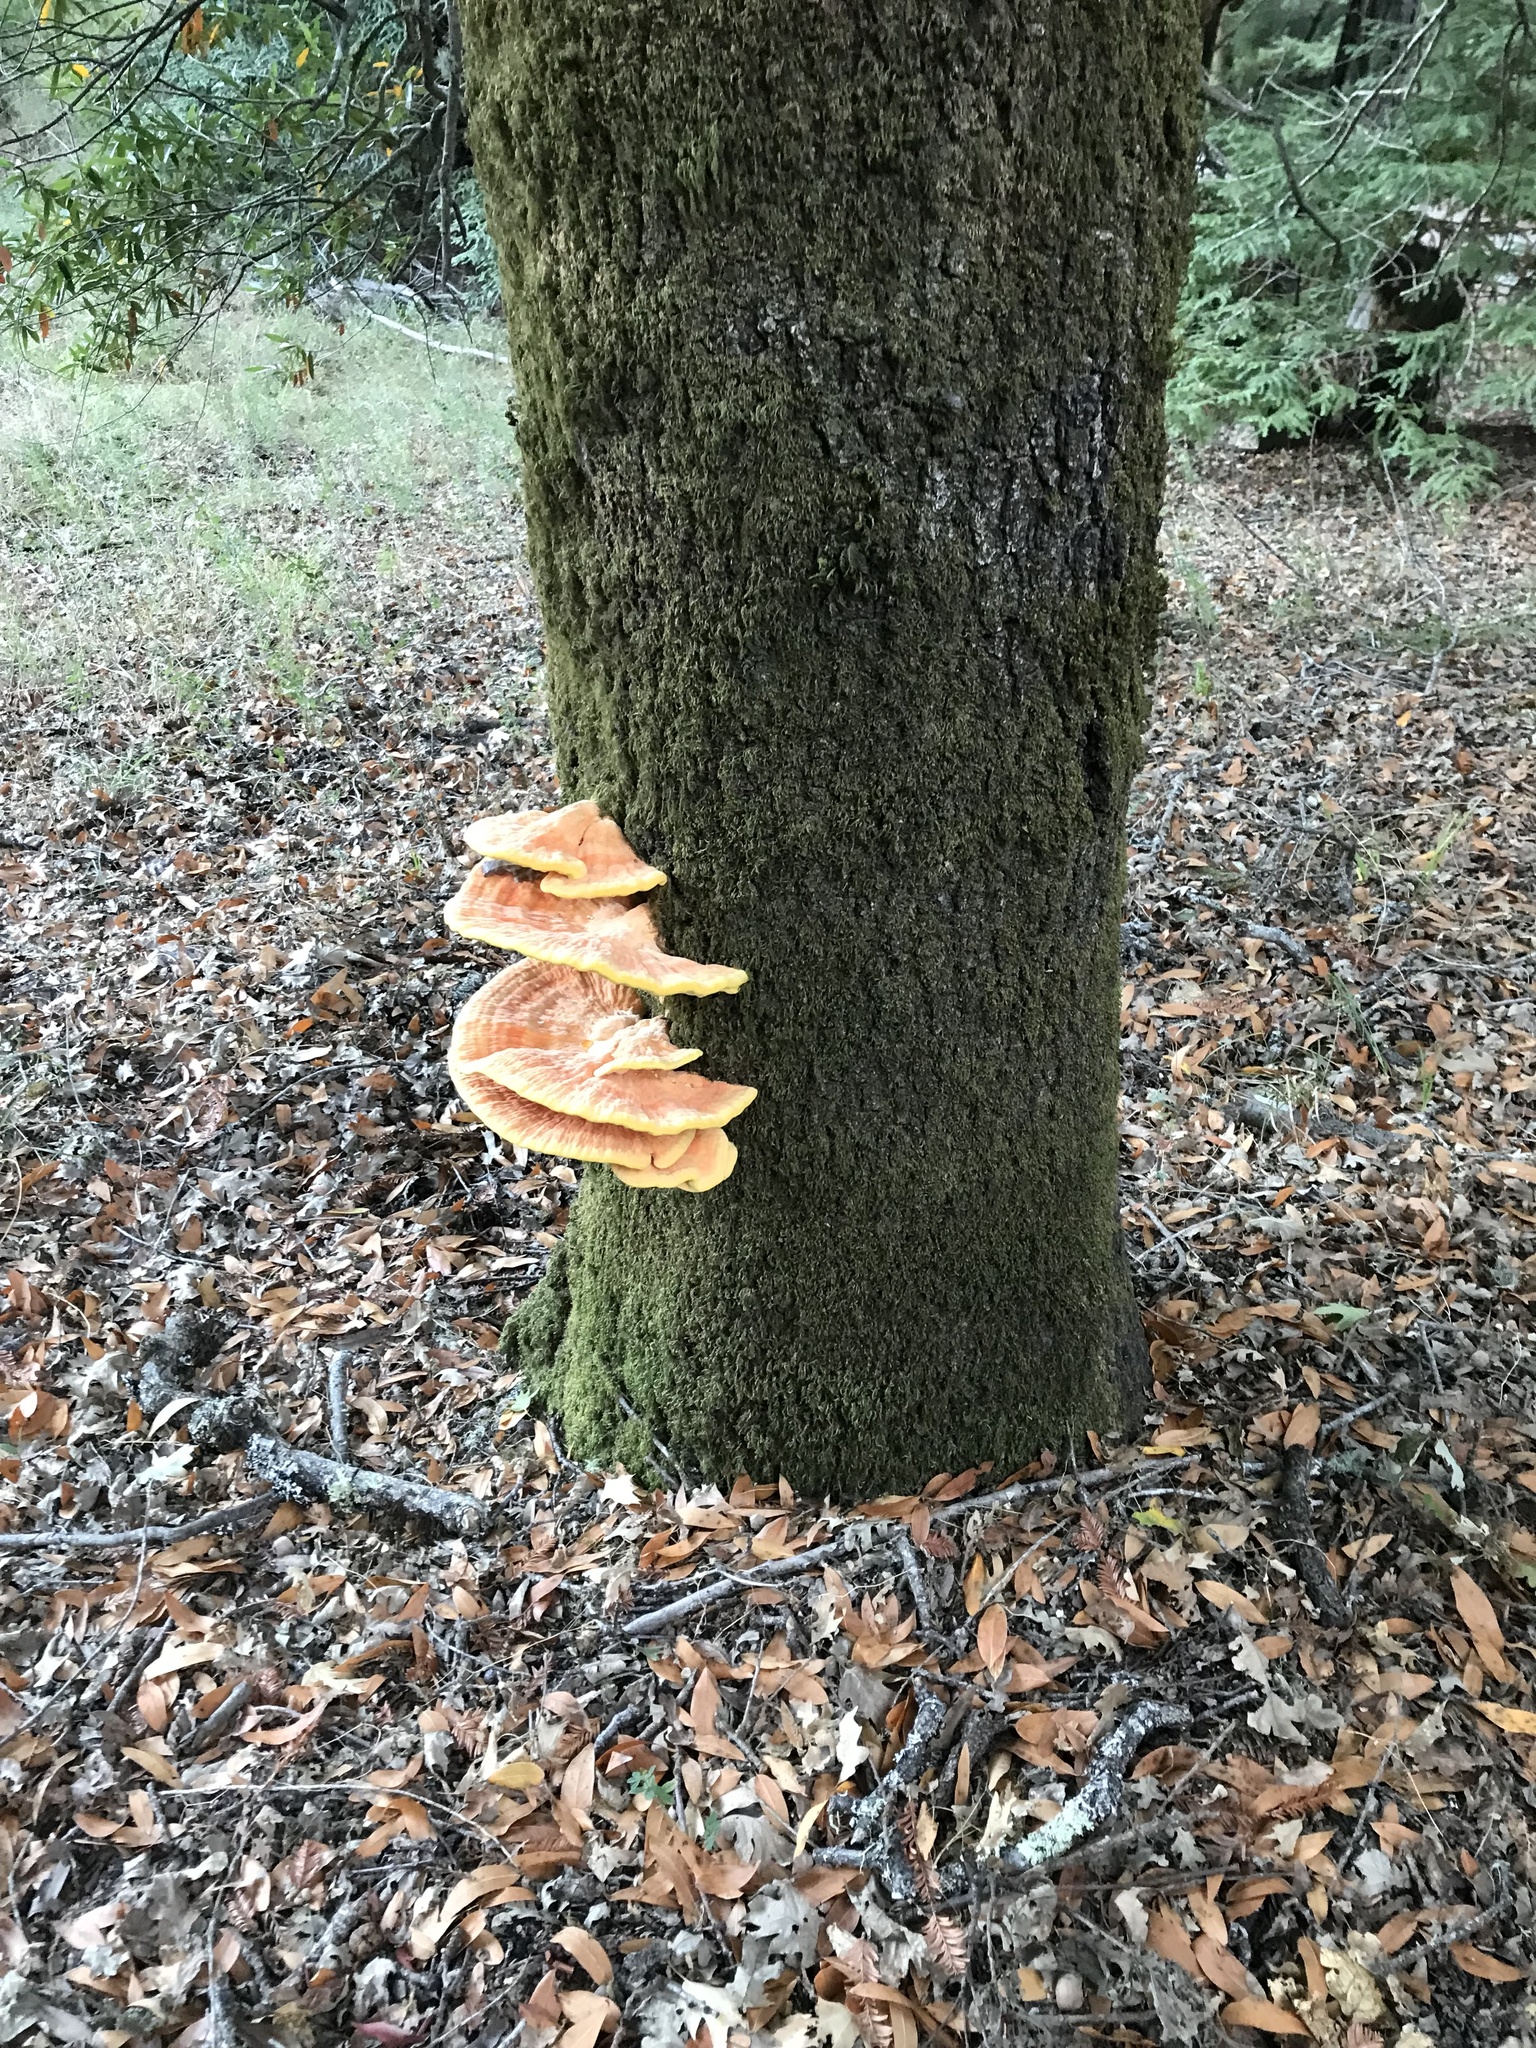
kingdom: Fungi
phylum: Basidiomycota
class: Agaricomycetes
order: Polyporales
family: Laetiporaceae
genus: Laetiporus
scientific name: Laetiporus gilbertsonii
